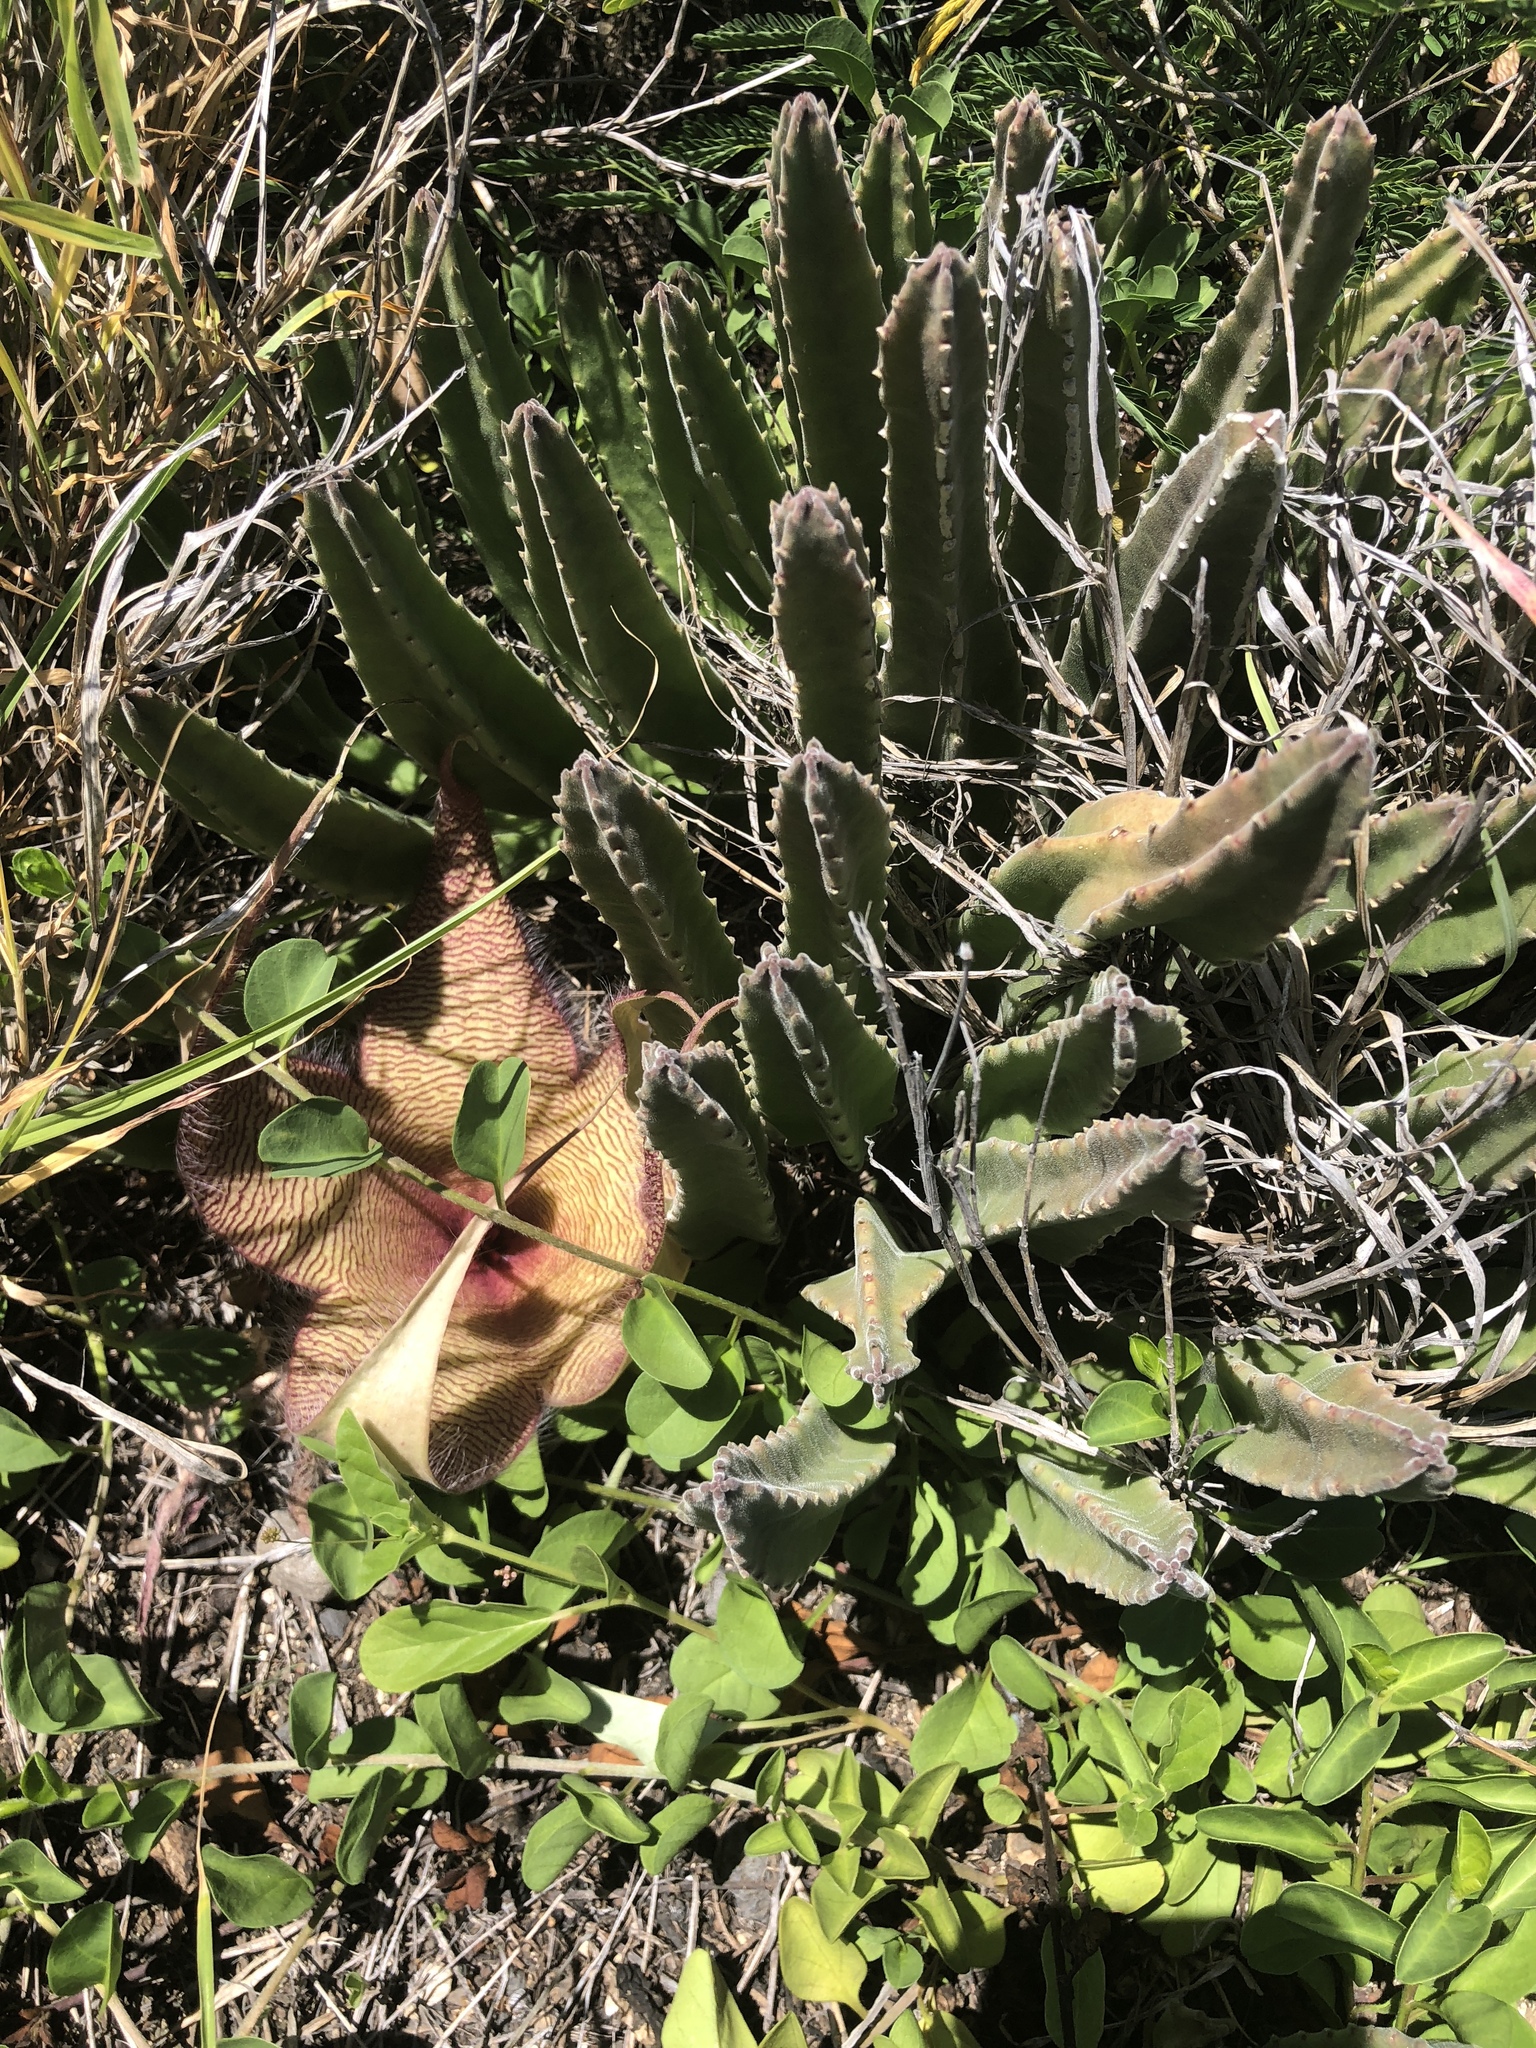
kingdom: Plantae
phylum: Tracheophyta
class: Magnoliopsida
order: Gentianales
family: Apocynaceae
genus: Ceropegia
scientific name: Ceropegia gigantea
